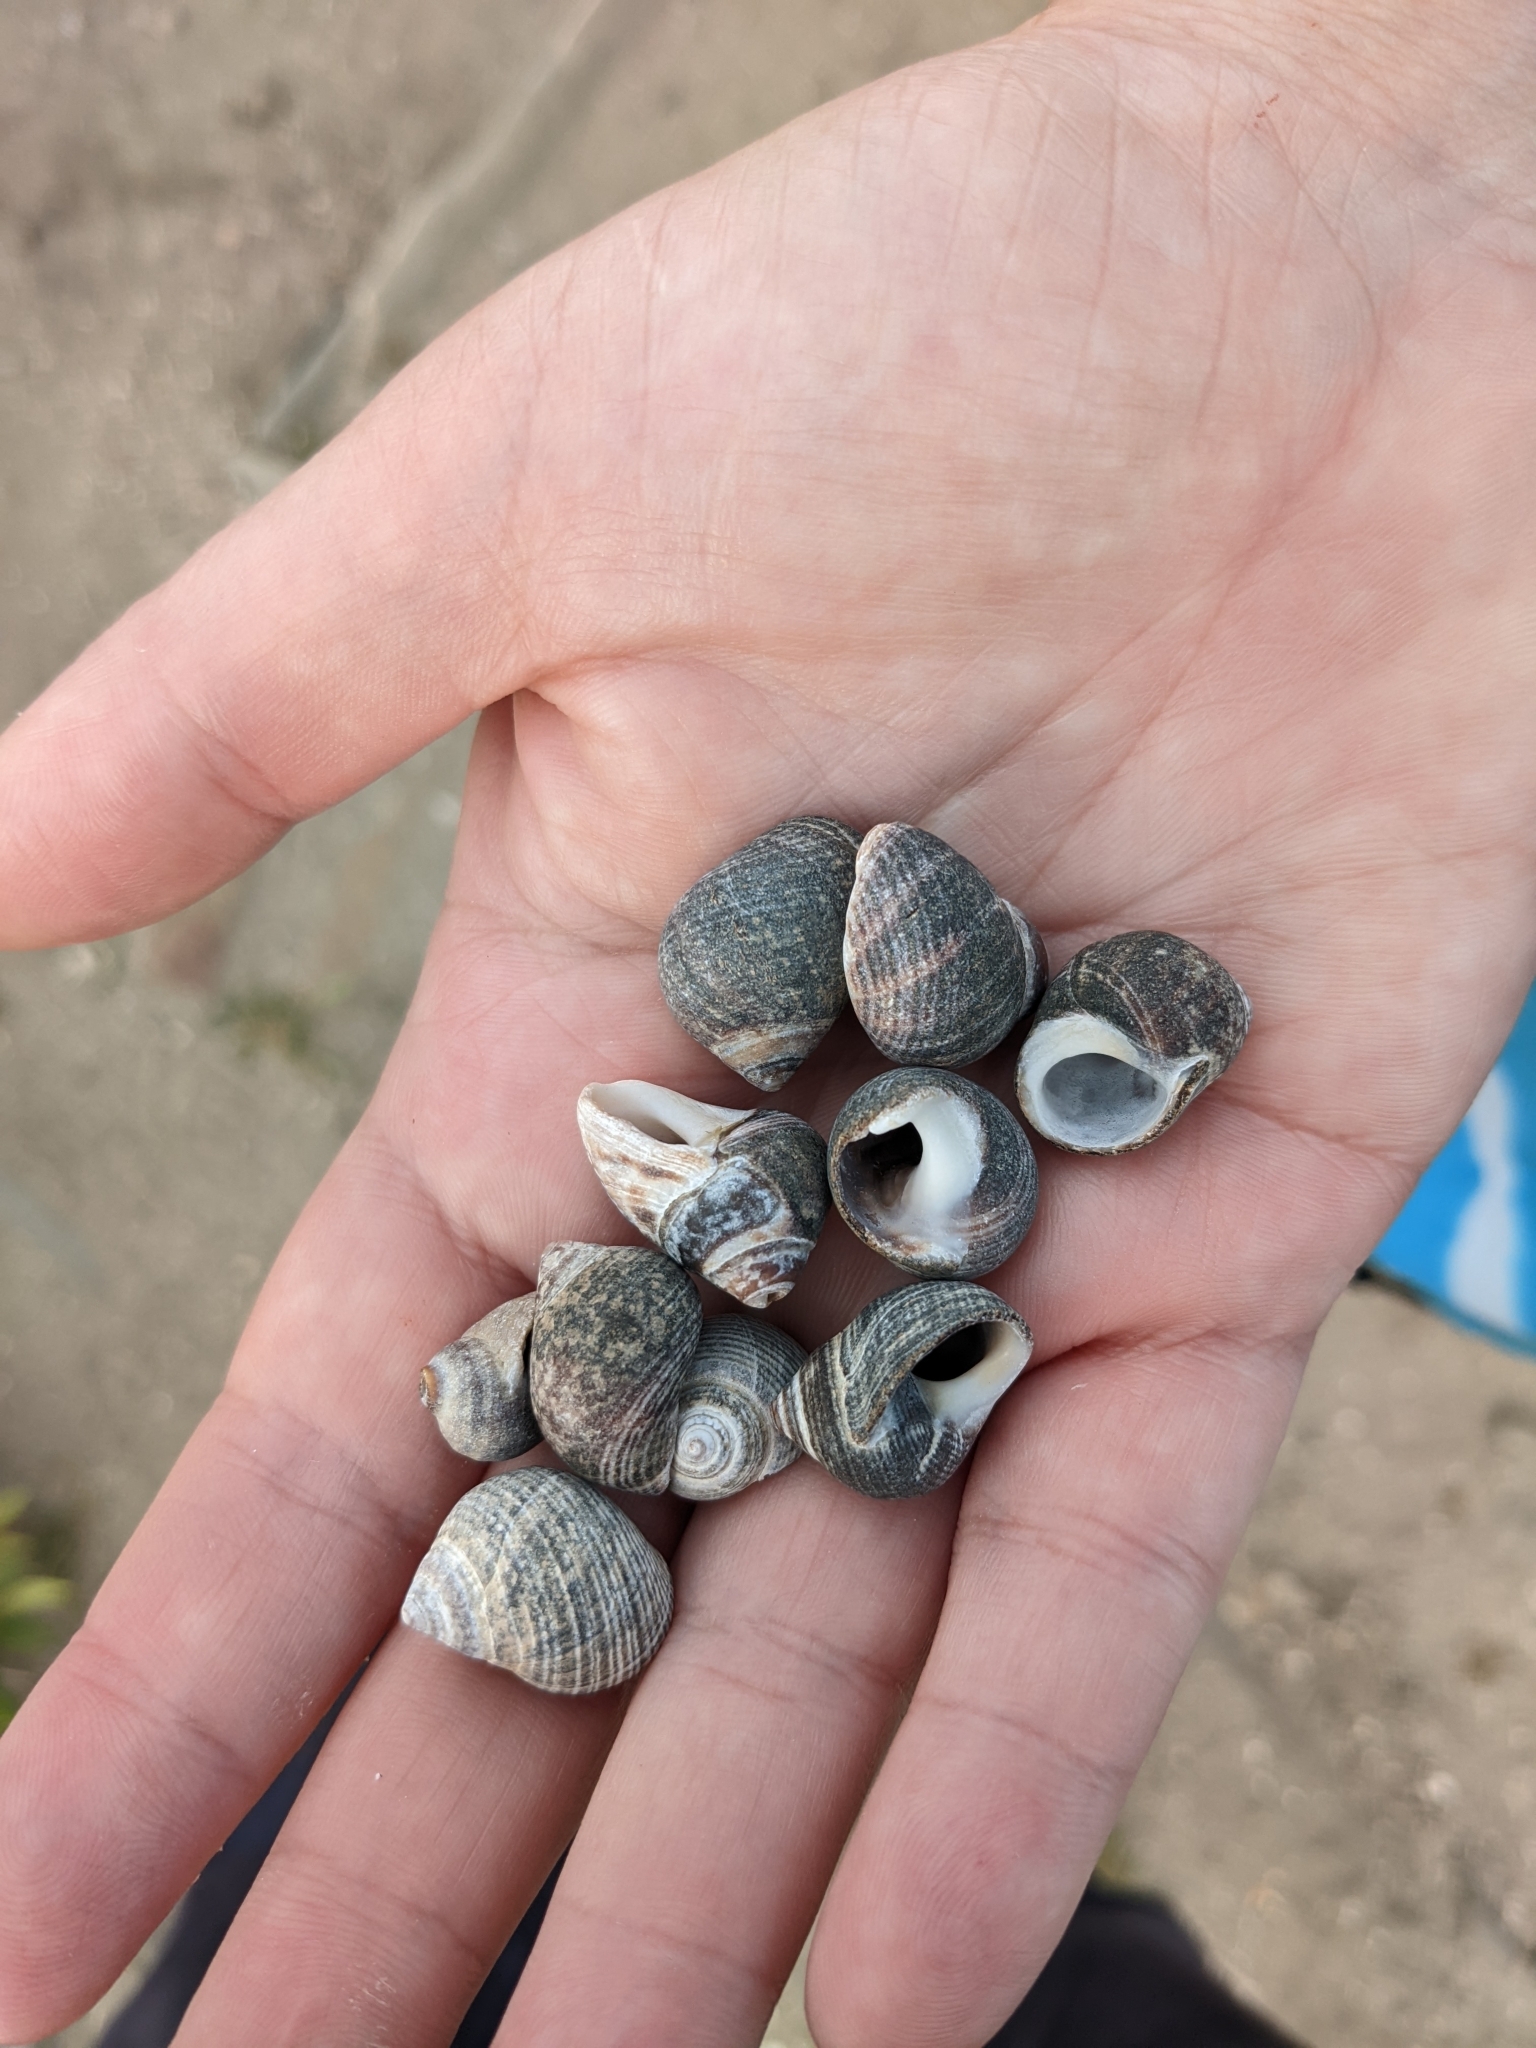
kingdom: Animalia
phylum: Mollusca
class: Gastropoda
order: Littorinimorpha
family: Littorinidae
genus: Littorina
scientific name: Littorina littorea
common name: Common periwinkle
